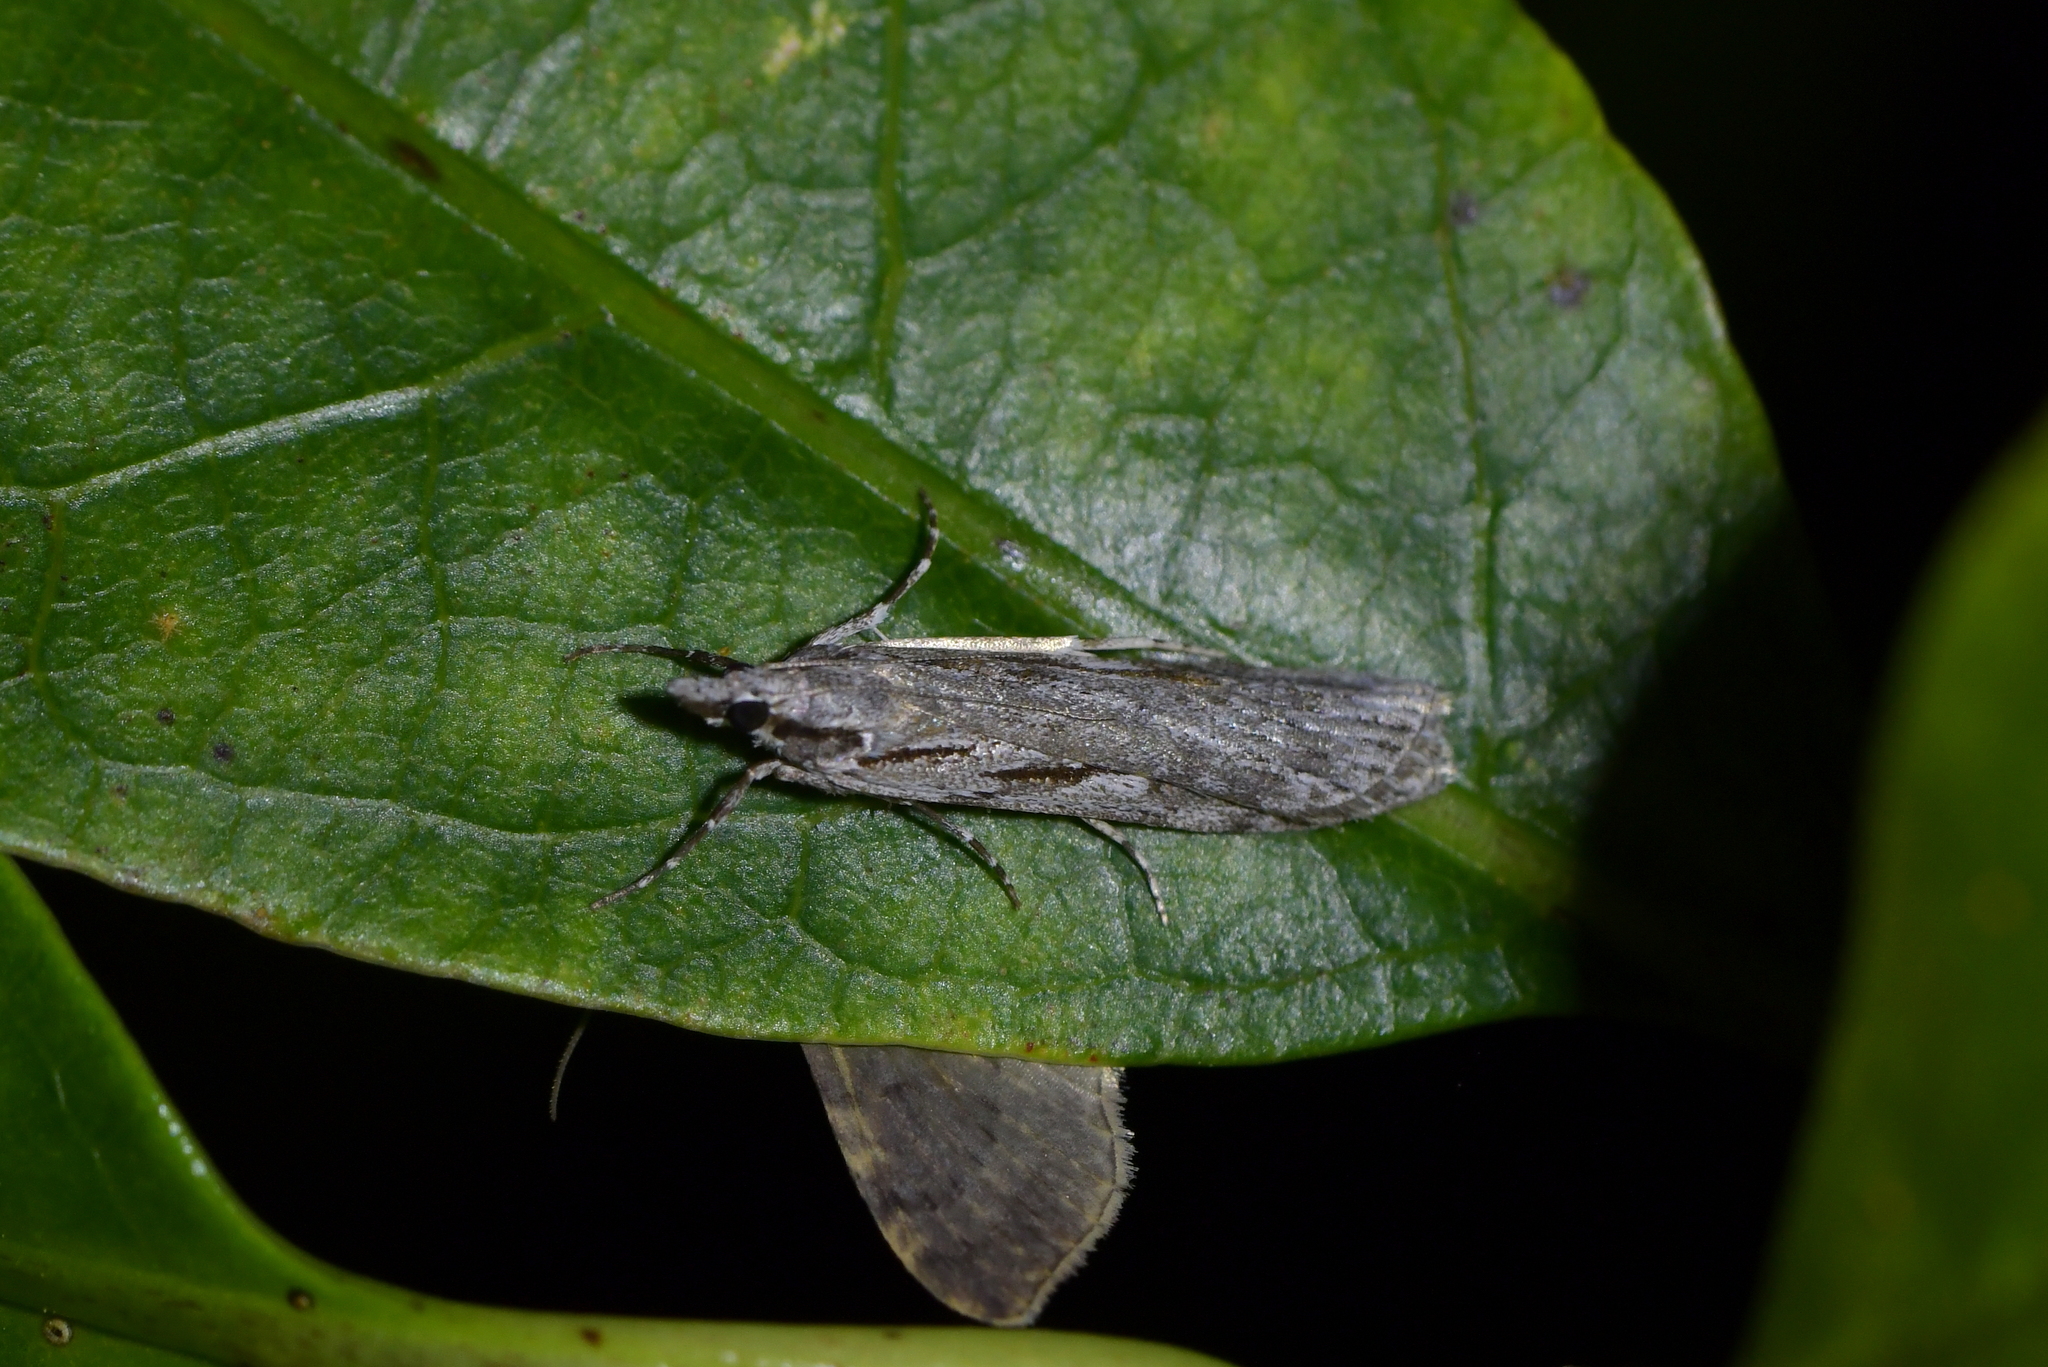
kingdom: Animalia
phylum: Arthropoda
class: Insecta
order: Lepidoptera
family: Crambidae
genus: Scoparia
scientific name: Scoparia indistinctalis
